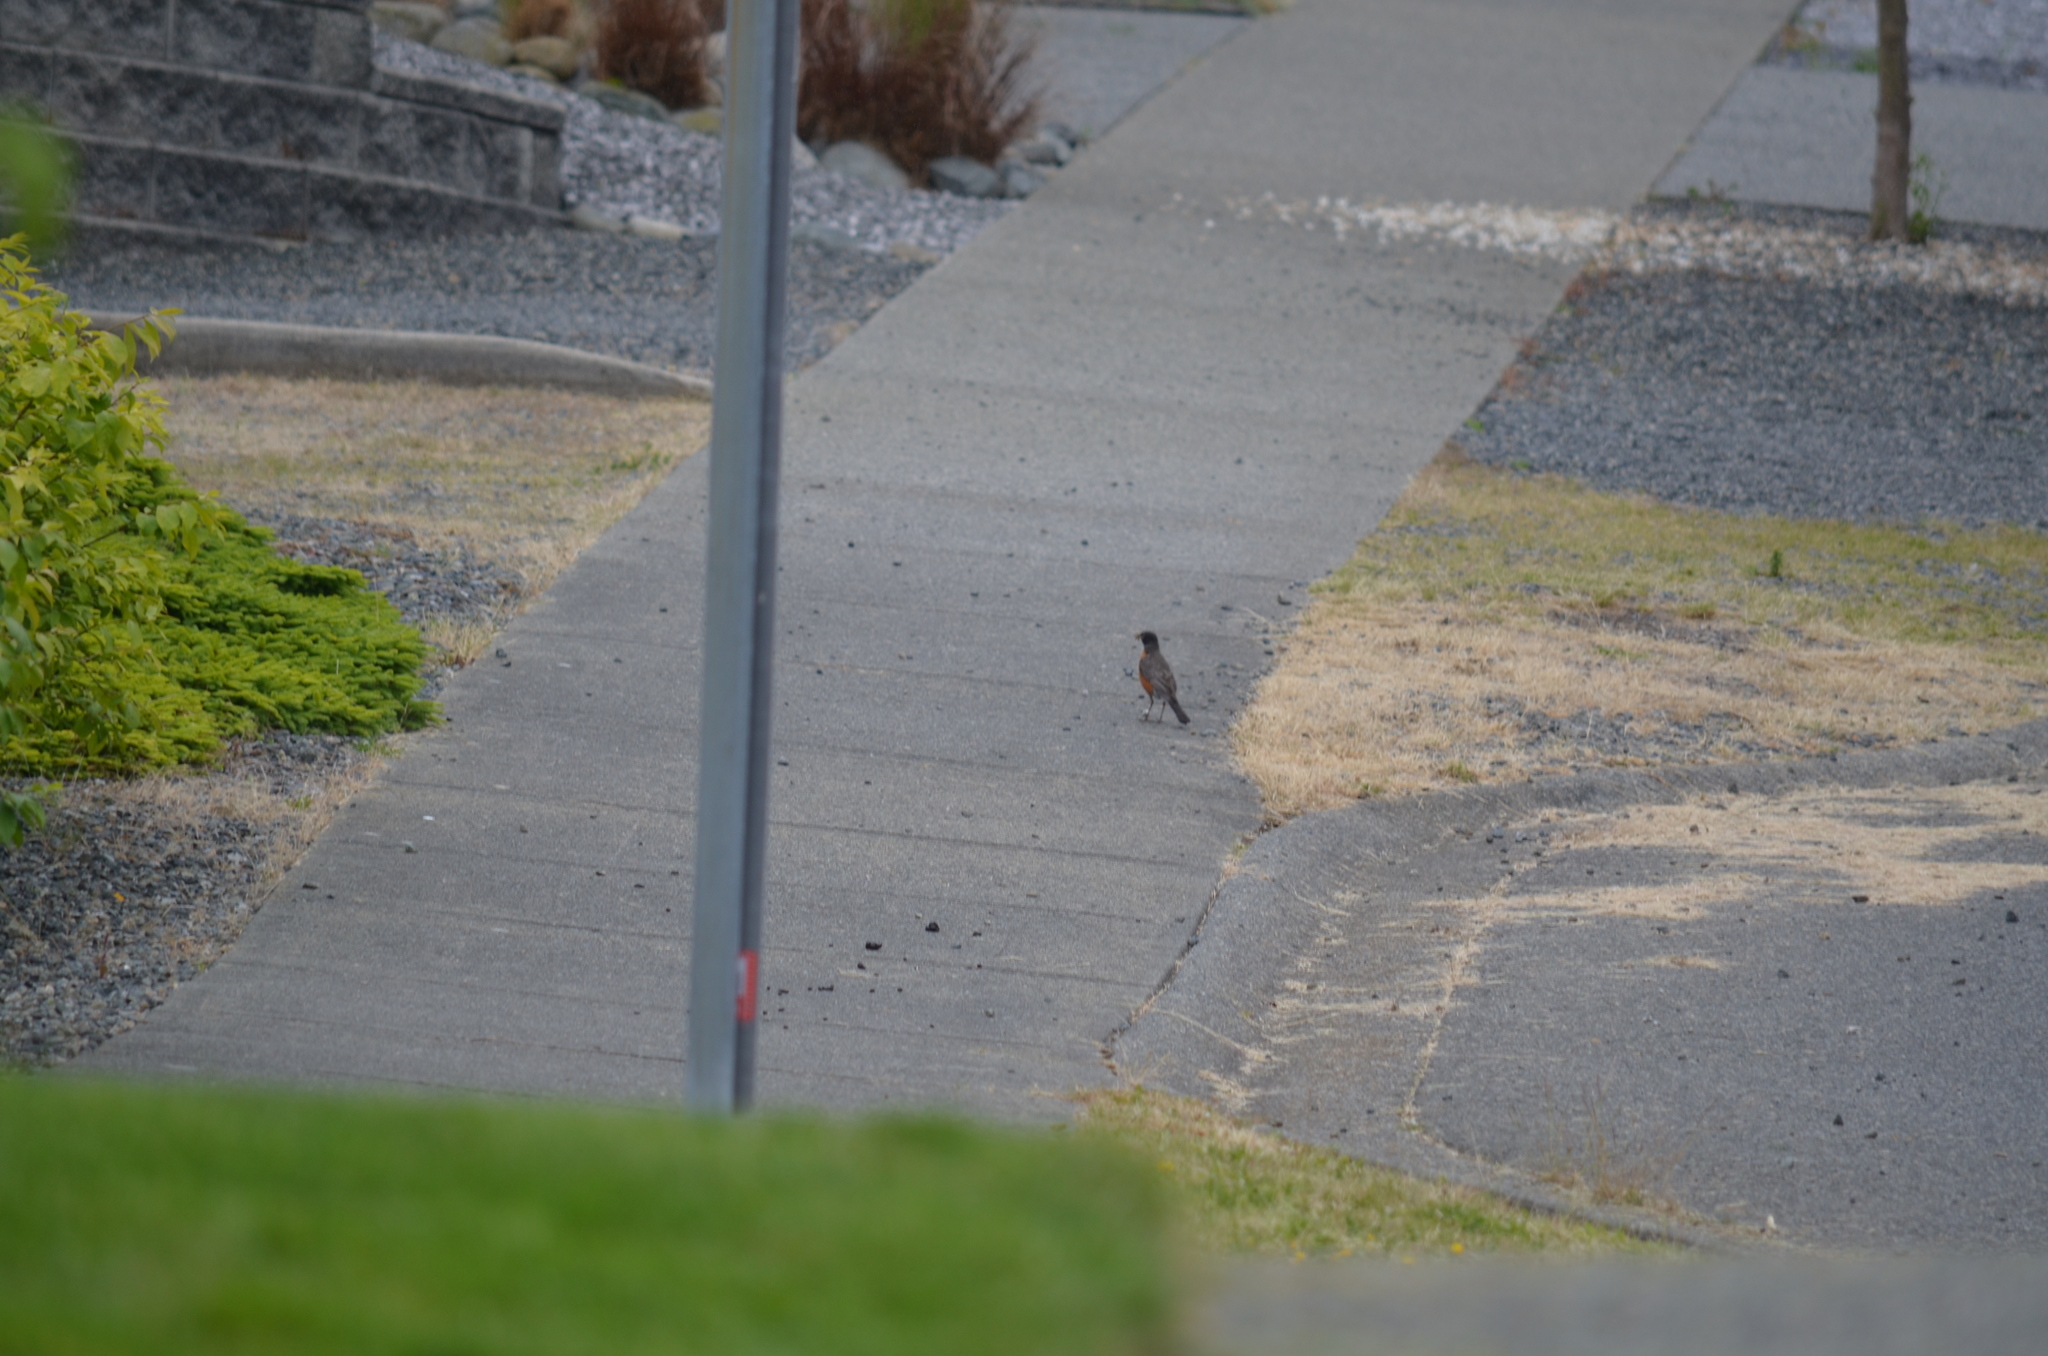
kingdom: Animalia
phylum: Chordata
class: Aves
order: Passeriformes
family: Turdidae
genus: Turdus
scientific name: Turdus migratorius
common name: American robin
